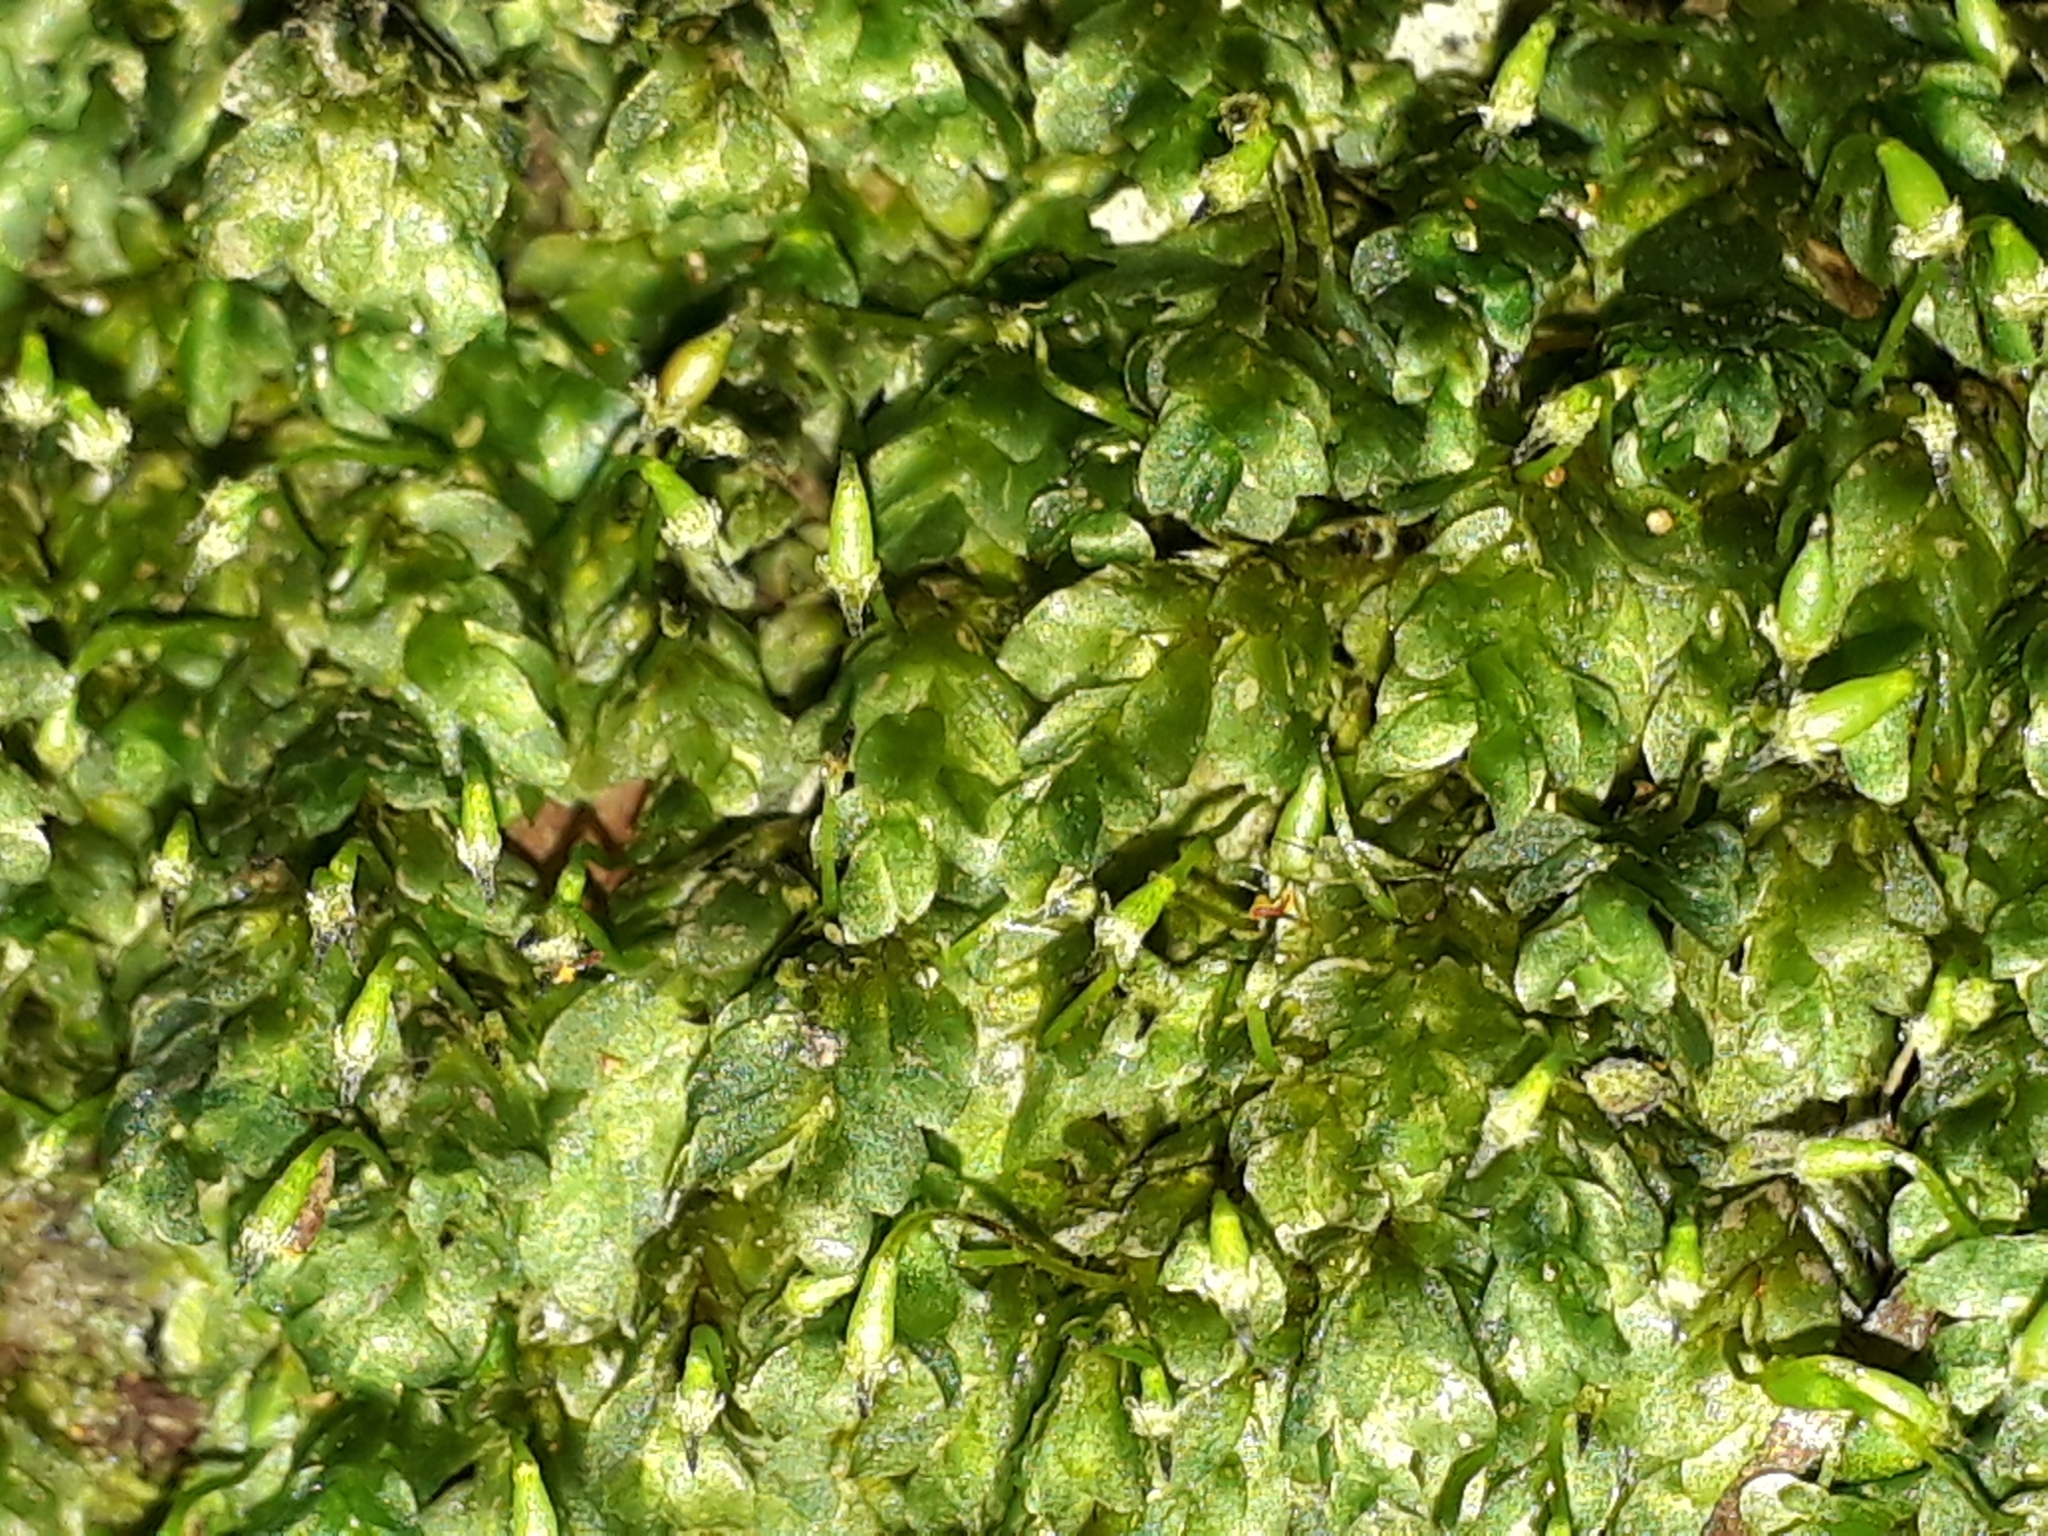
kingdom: Plantae
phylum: Bryophyta
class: Bryopsida
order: Hookeriales
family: Daltoniaceae
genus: Calyptrochaeta
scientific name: Calyptrochaeta brownii
